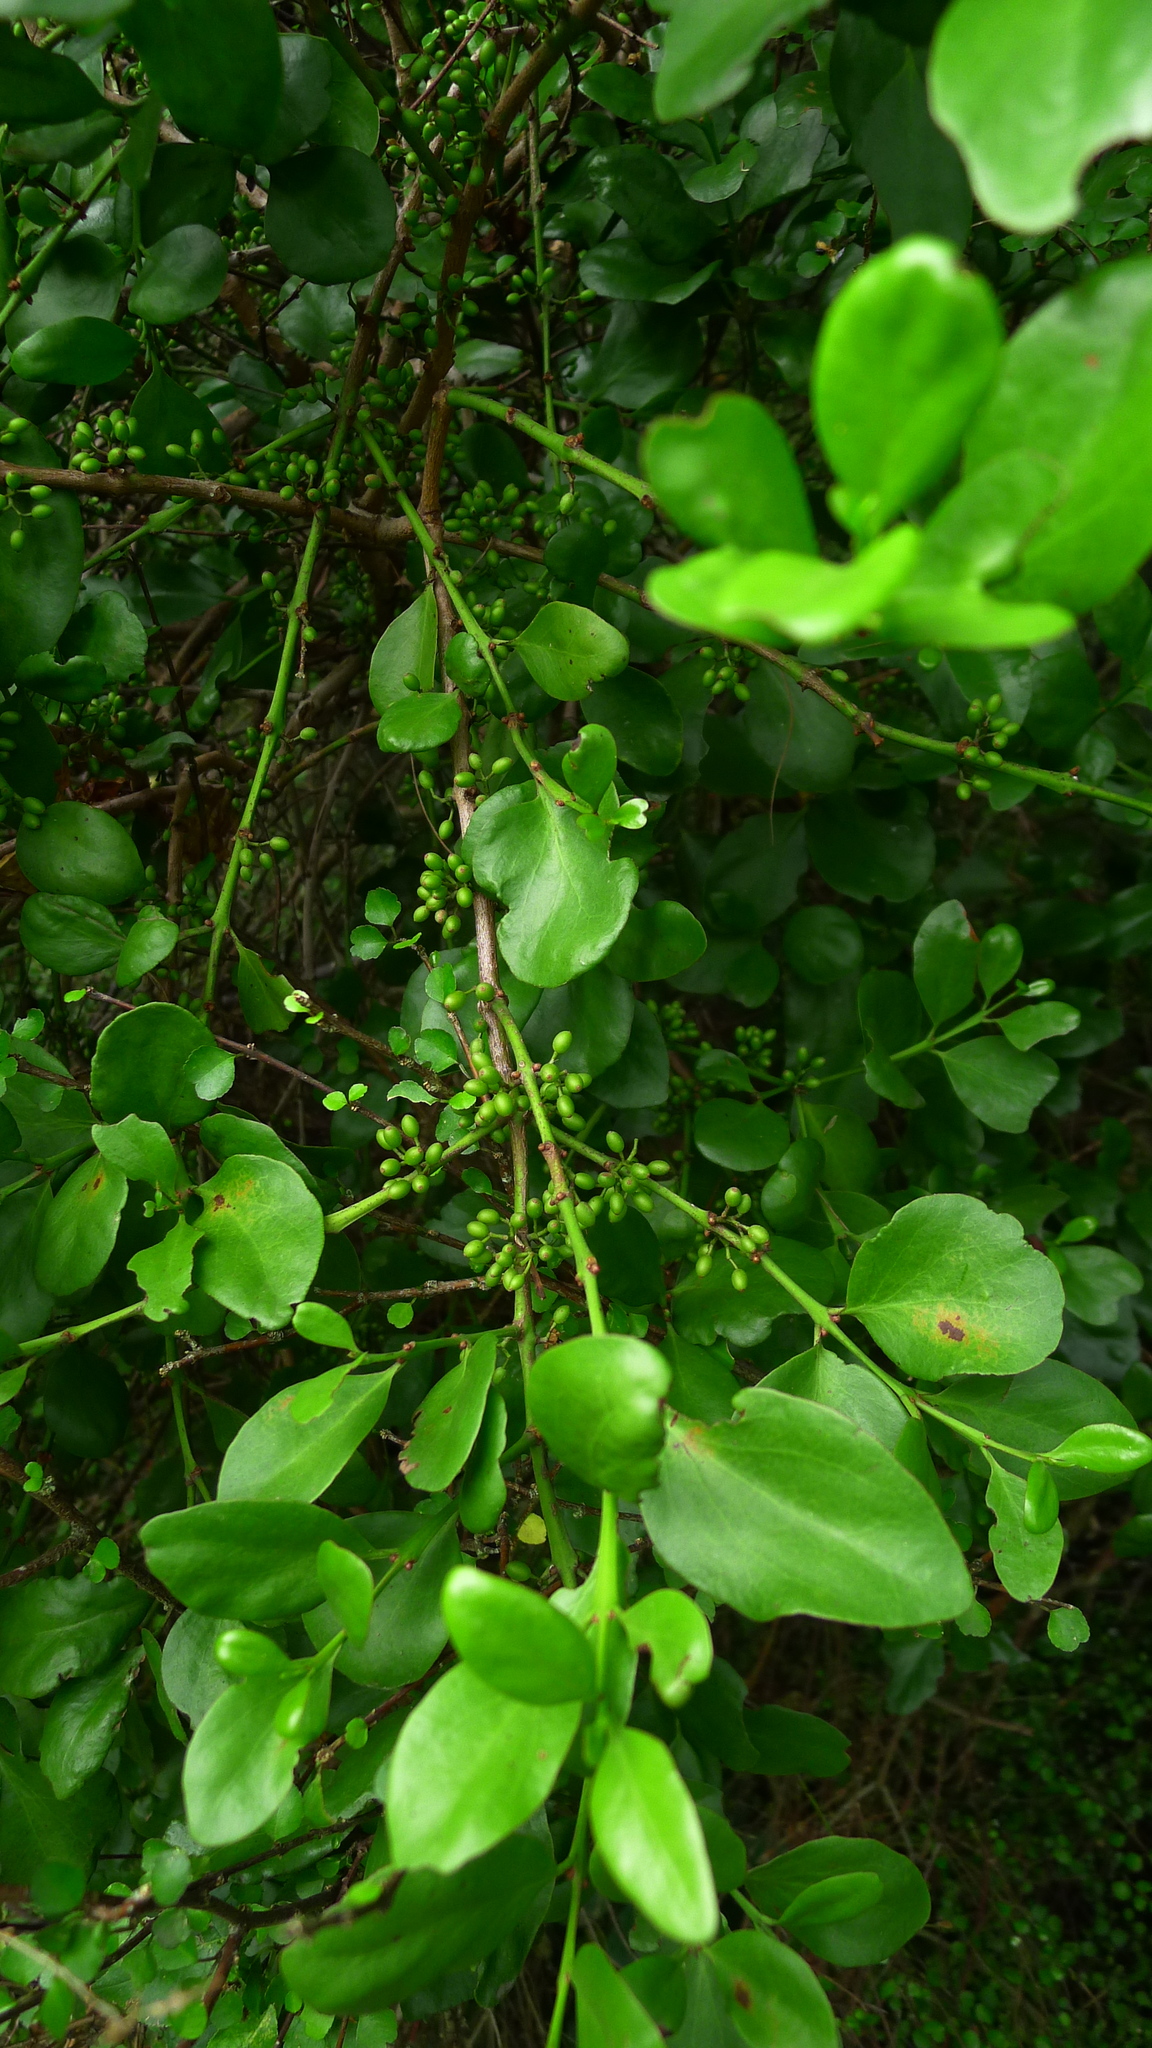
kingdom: Plantae
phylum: Tracheophyta
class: Magnoliopsida
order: Santalales
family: Loranthaceae
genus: Ileostylus
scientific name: Ileostylus micranthus
